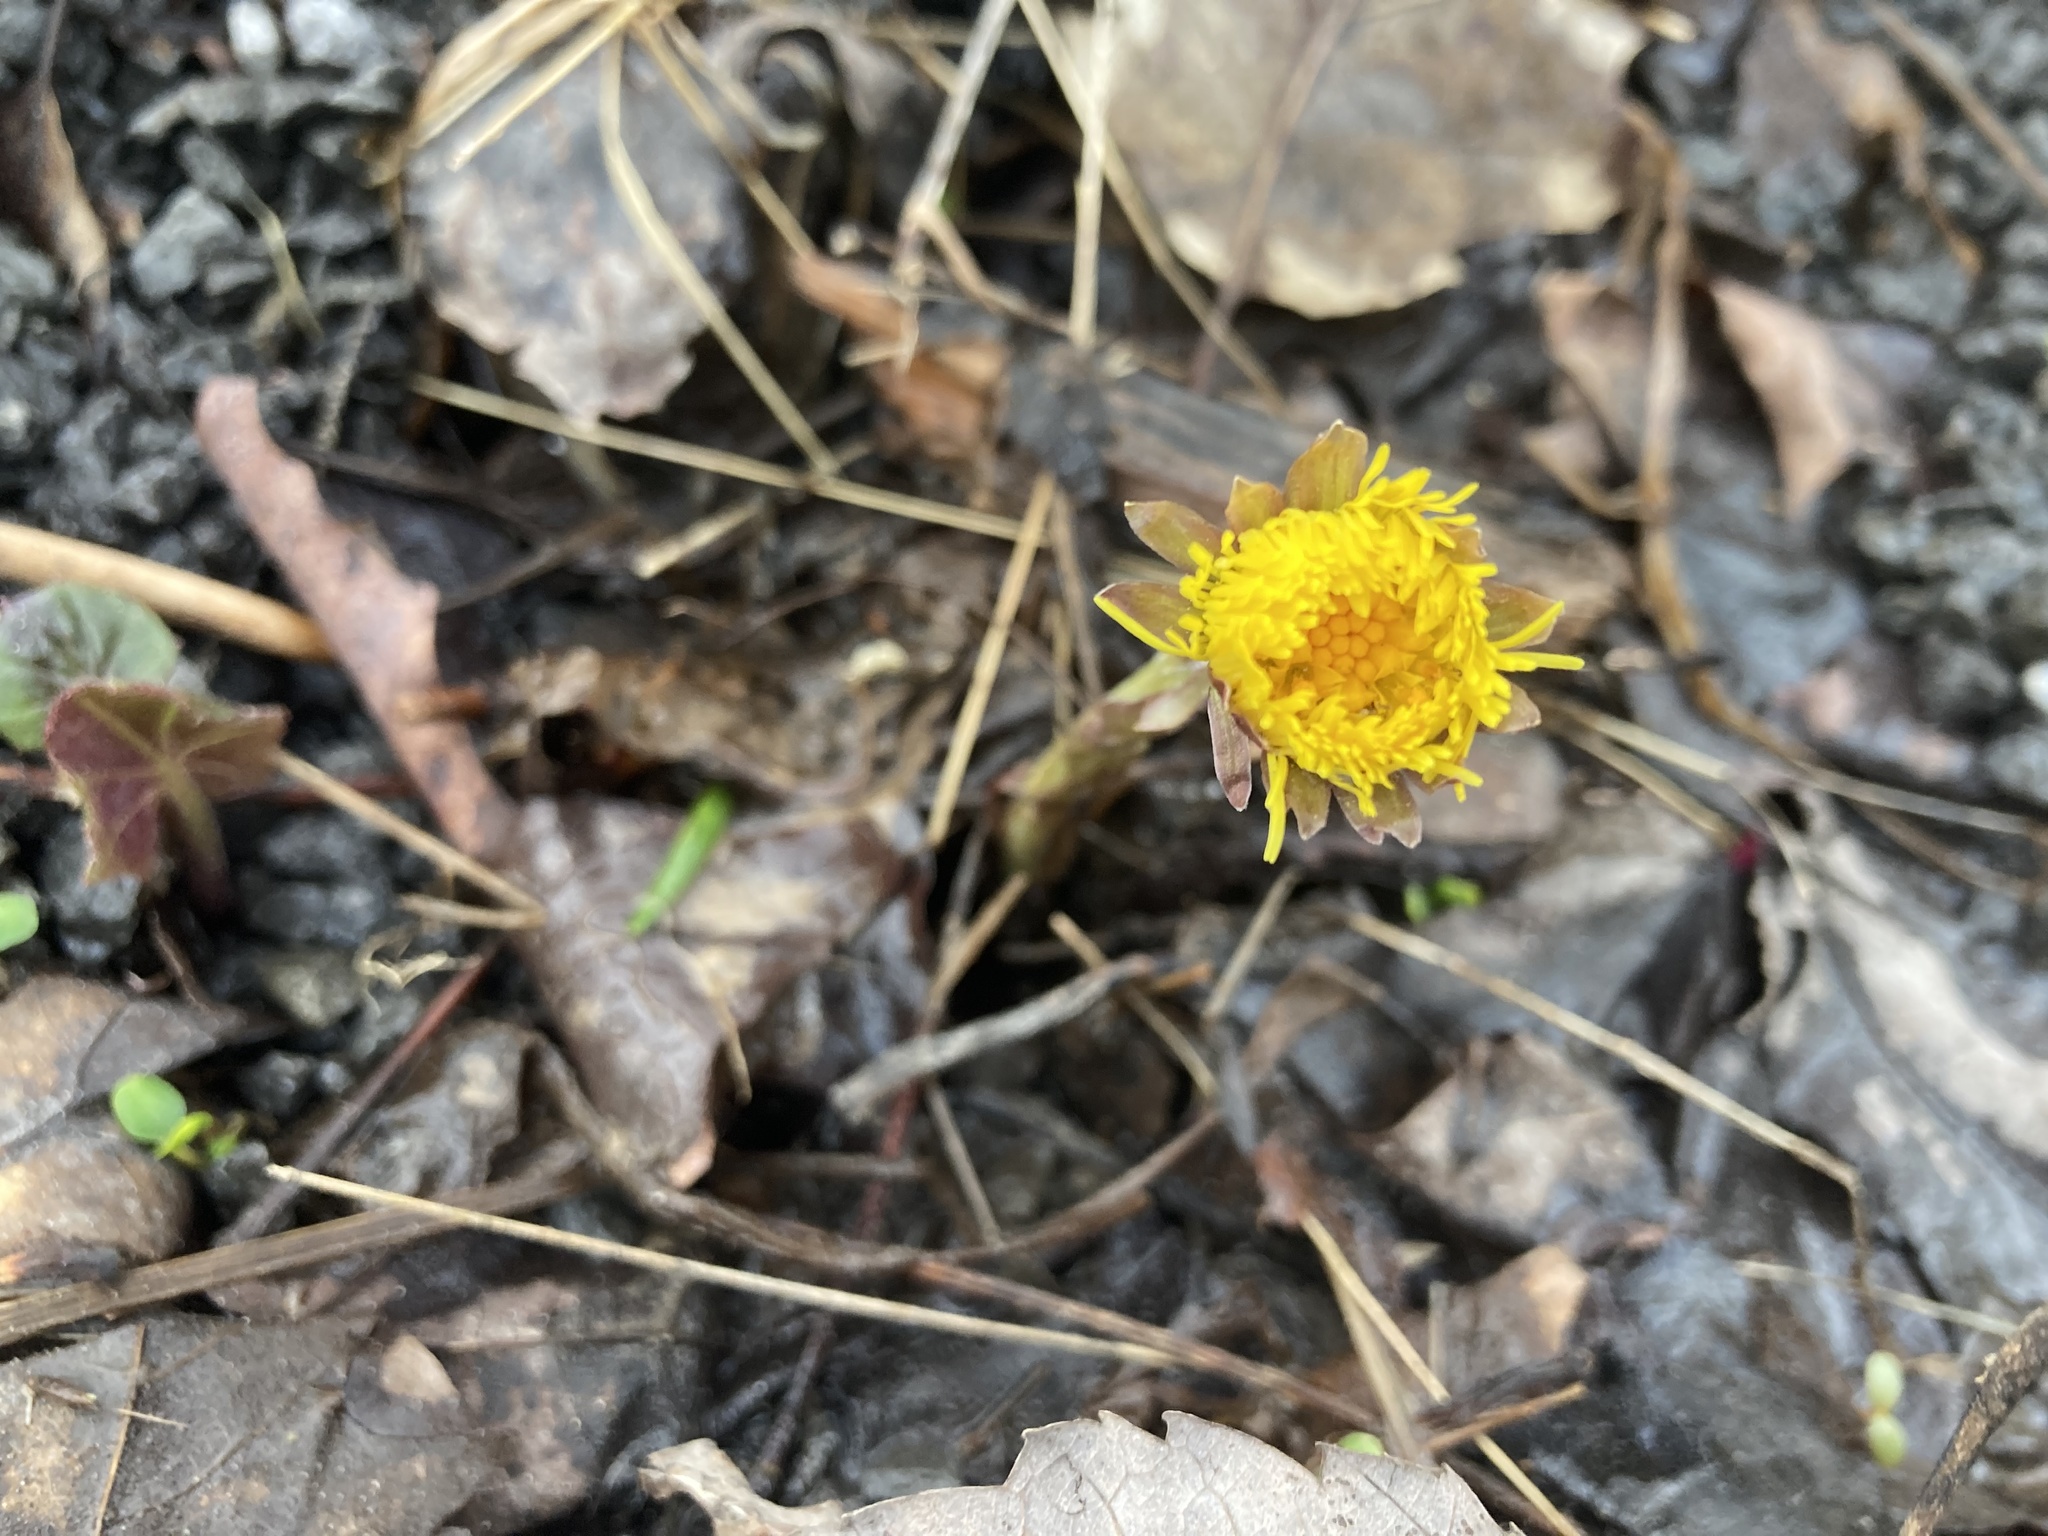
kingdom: Plantae
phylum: Tracheophyta
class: Magnoliopsida
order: Asterales
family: Asteraceae
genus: Tussilago
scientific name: Tussilago farfara
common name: Coltsfoot
